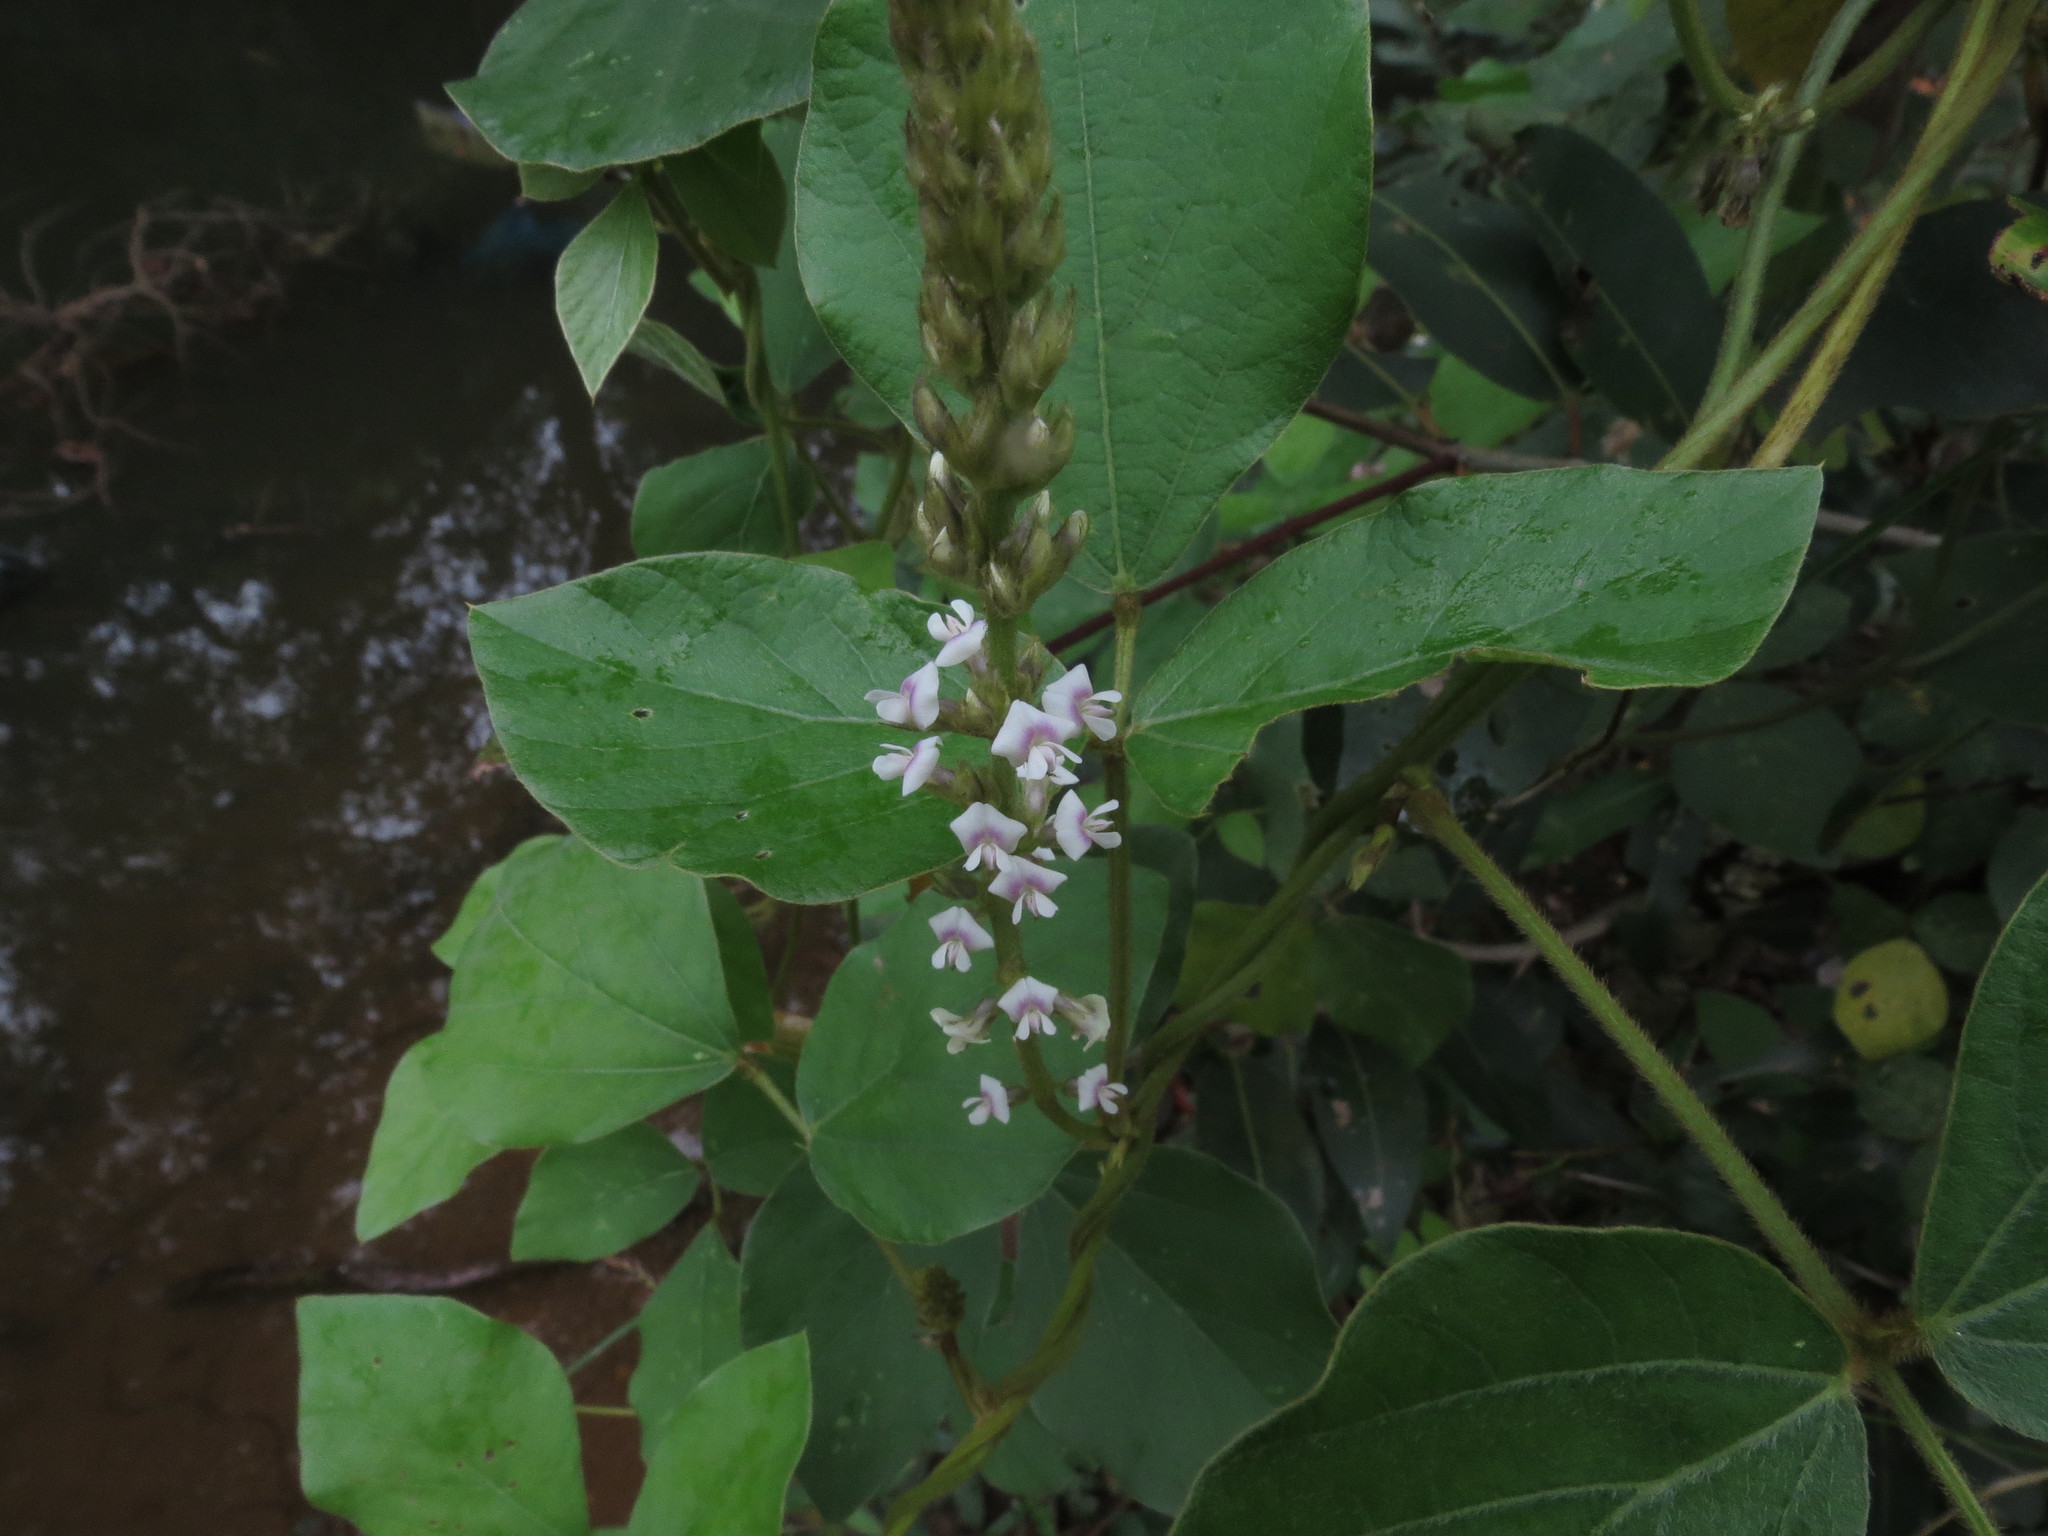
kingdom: Plantae
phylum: Tracheophyta
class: Magnoliopsida
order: Fabales
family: Fabaceae
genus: Neonotonia
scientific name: Neonotonia wightii
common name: Perennial soybean
